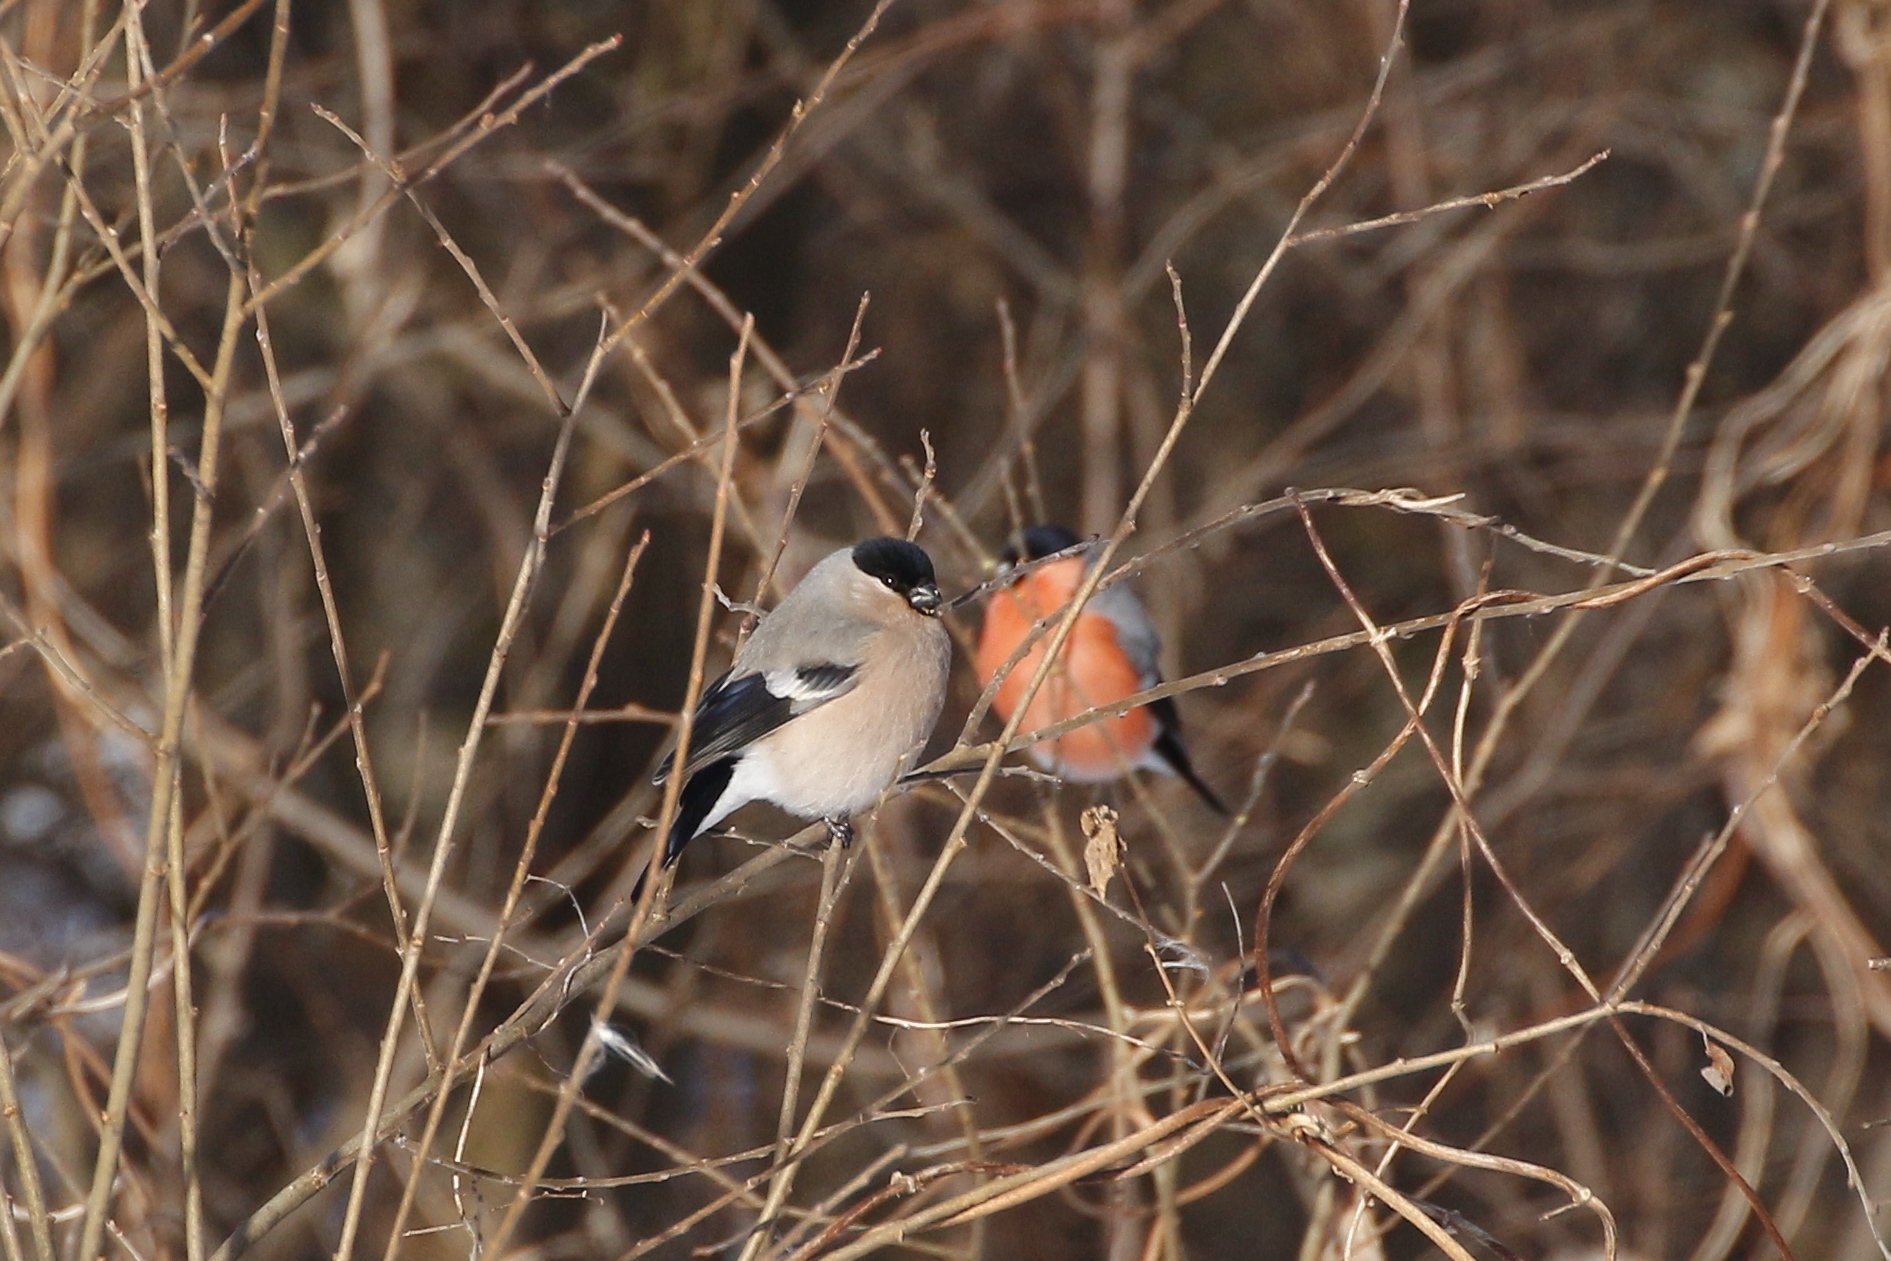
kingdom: Animalia
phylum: Chordata
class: Aves
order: Passeriformes
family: Fringillidae
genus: Pyrrhula
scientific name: Pyrrhula pyrrhula
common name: Eurasian bullfinch
